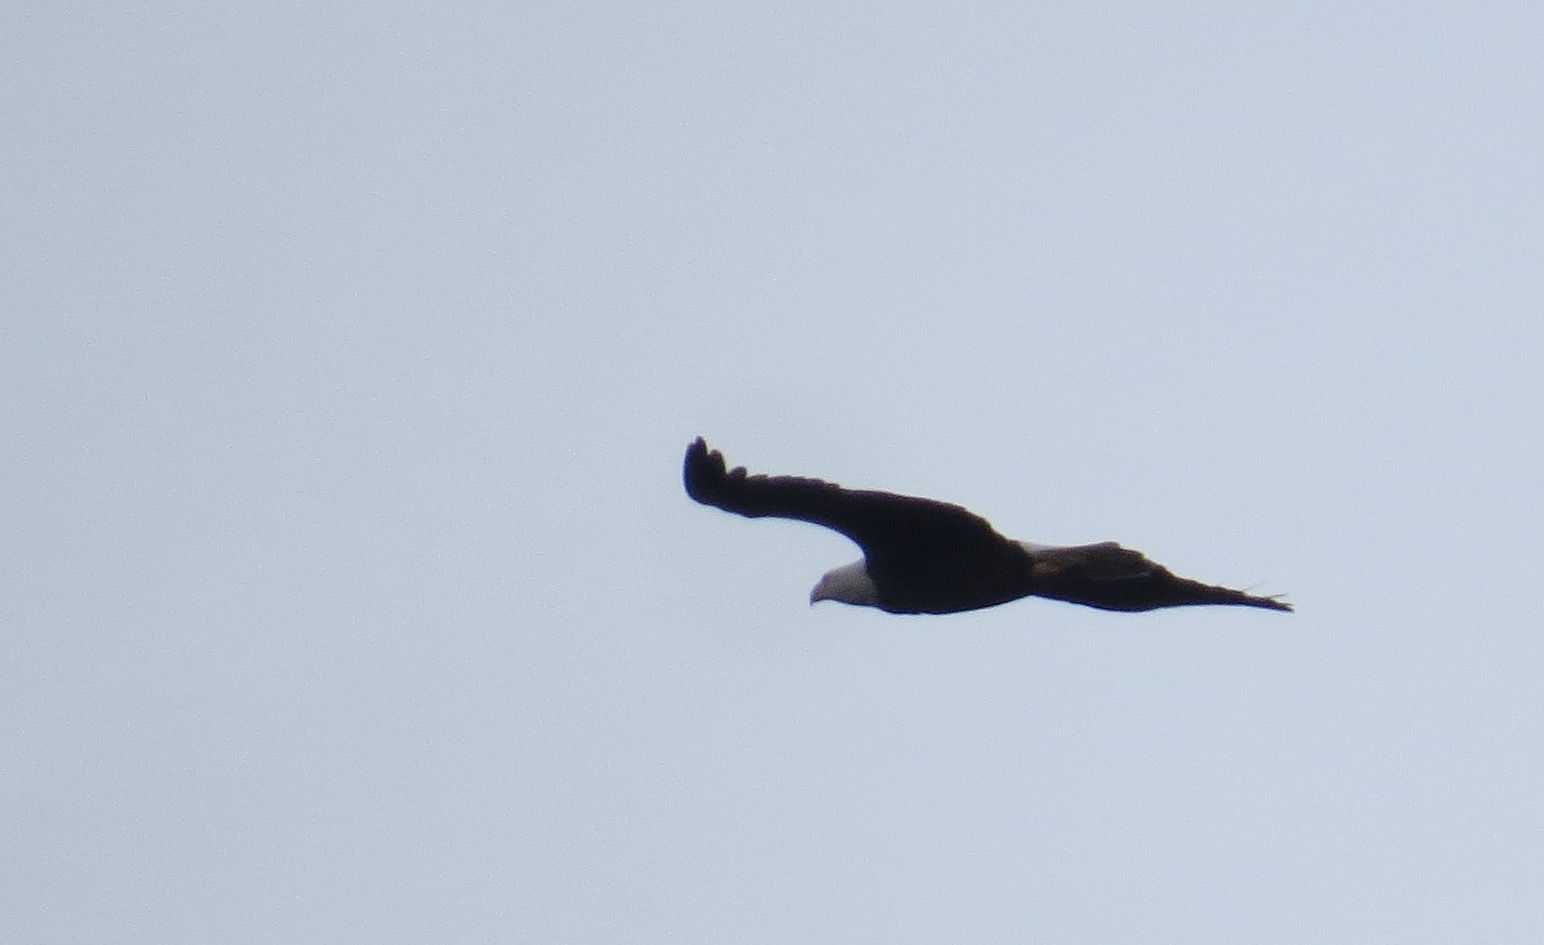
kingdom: Animalia
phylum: Chordata
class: Aves
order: Accipitriformes
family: Accipitridae
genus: Haliaeetus
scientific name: Haliaeetus leucocephalus
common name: Bald eagle
